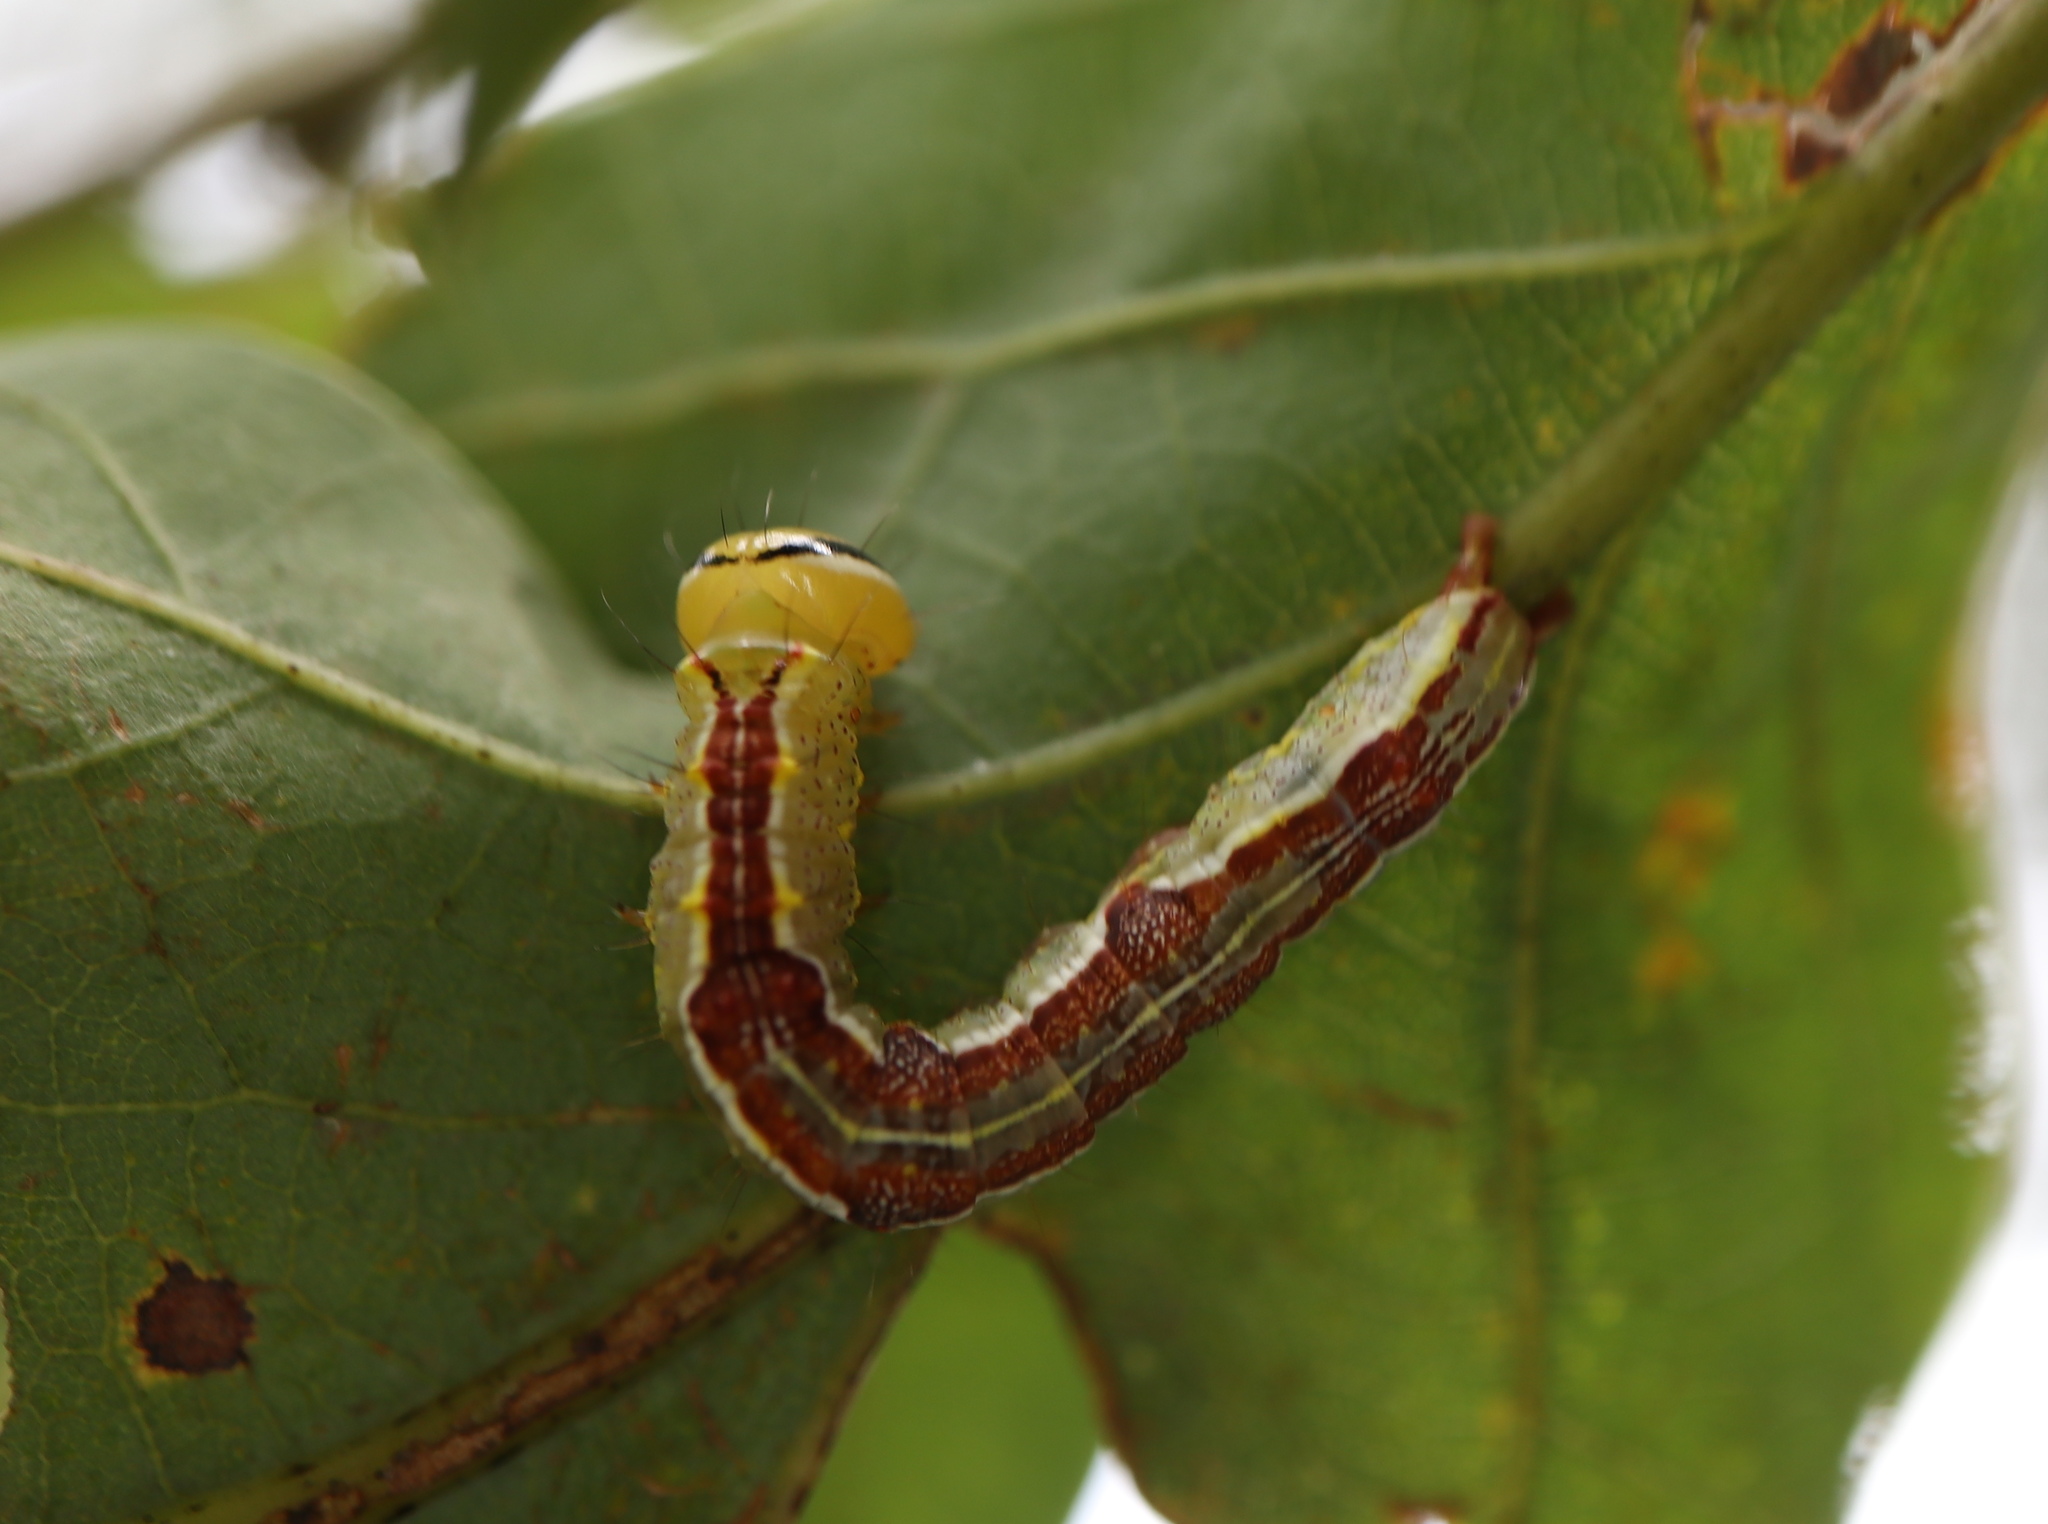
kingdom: Animalia
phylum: Arthropoda
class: Insecta
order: Lepidoptera
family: Notodontidae
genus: Lochmaeus
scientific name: Lochmaeus
